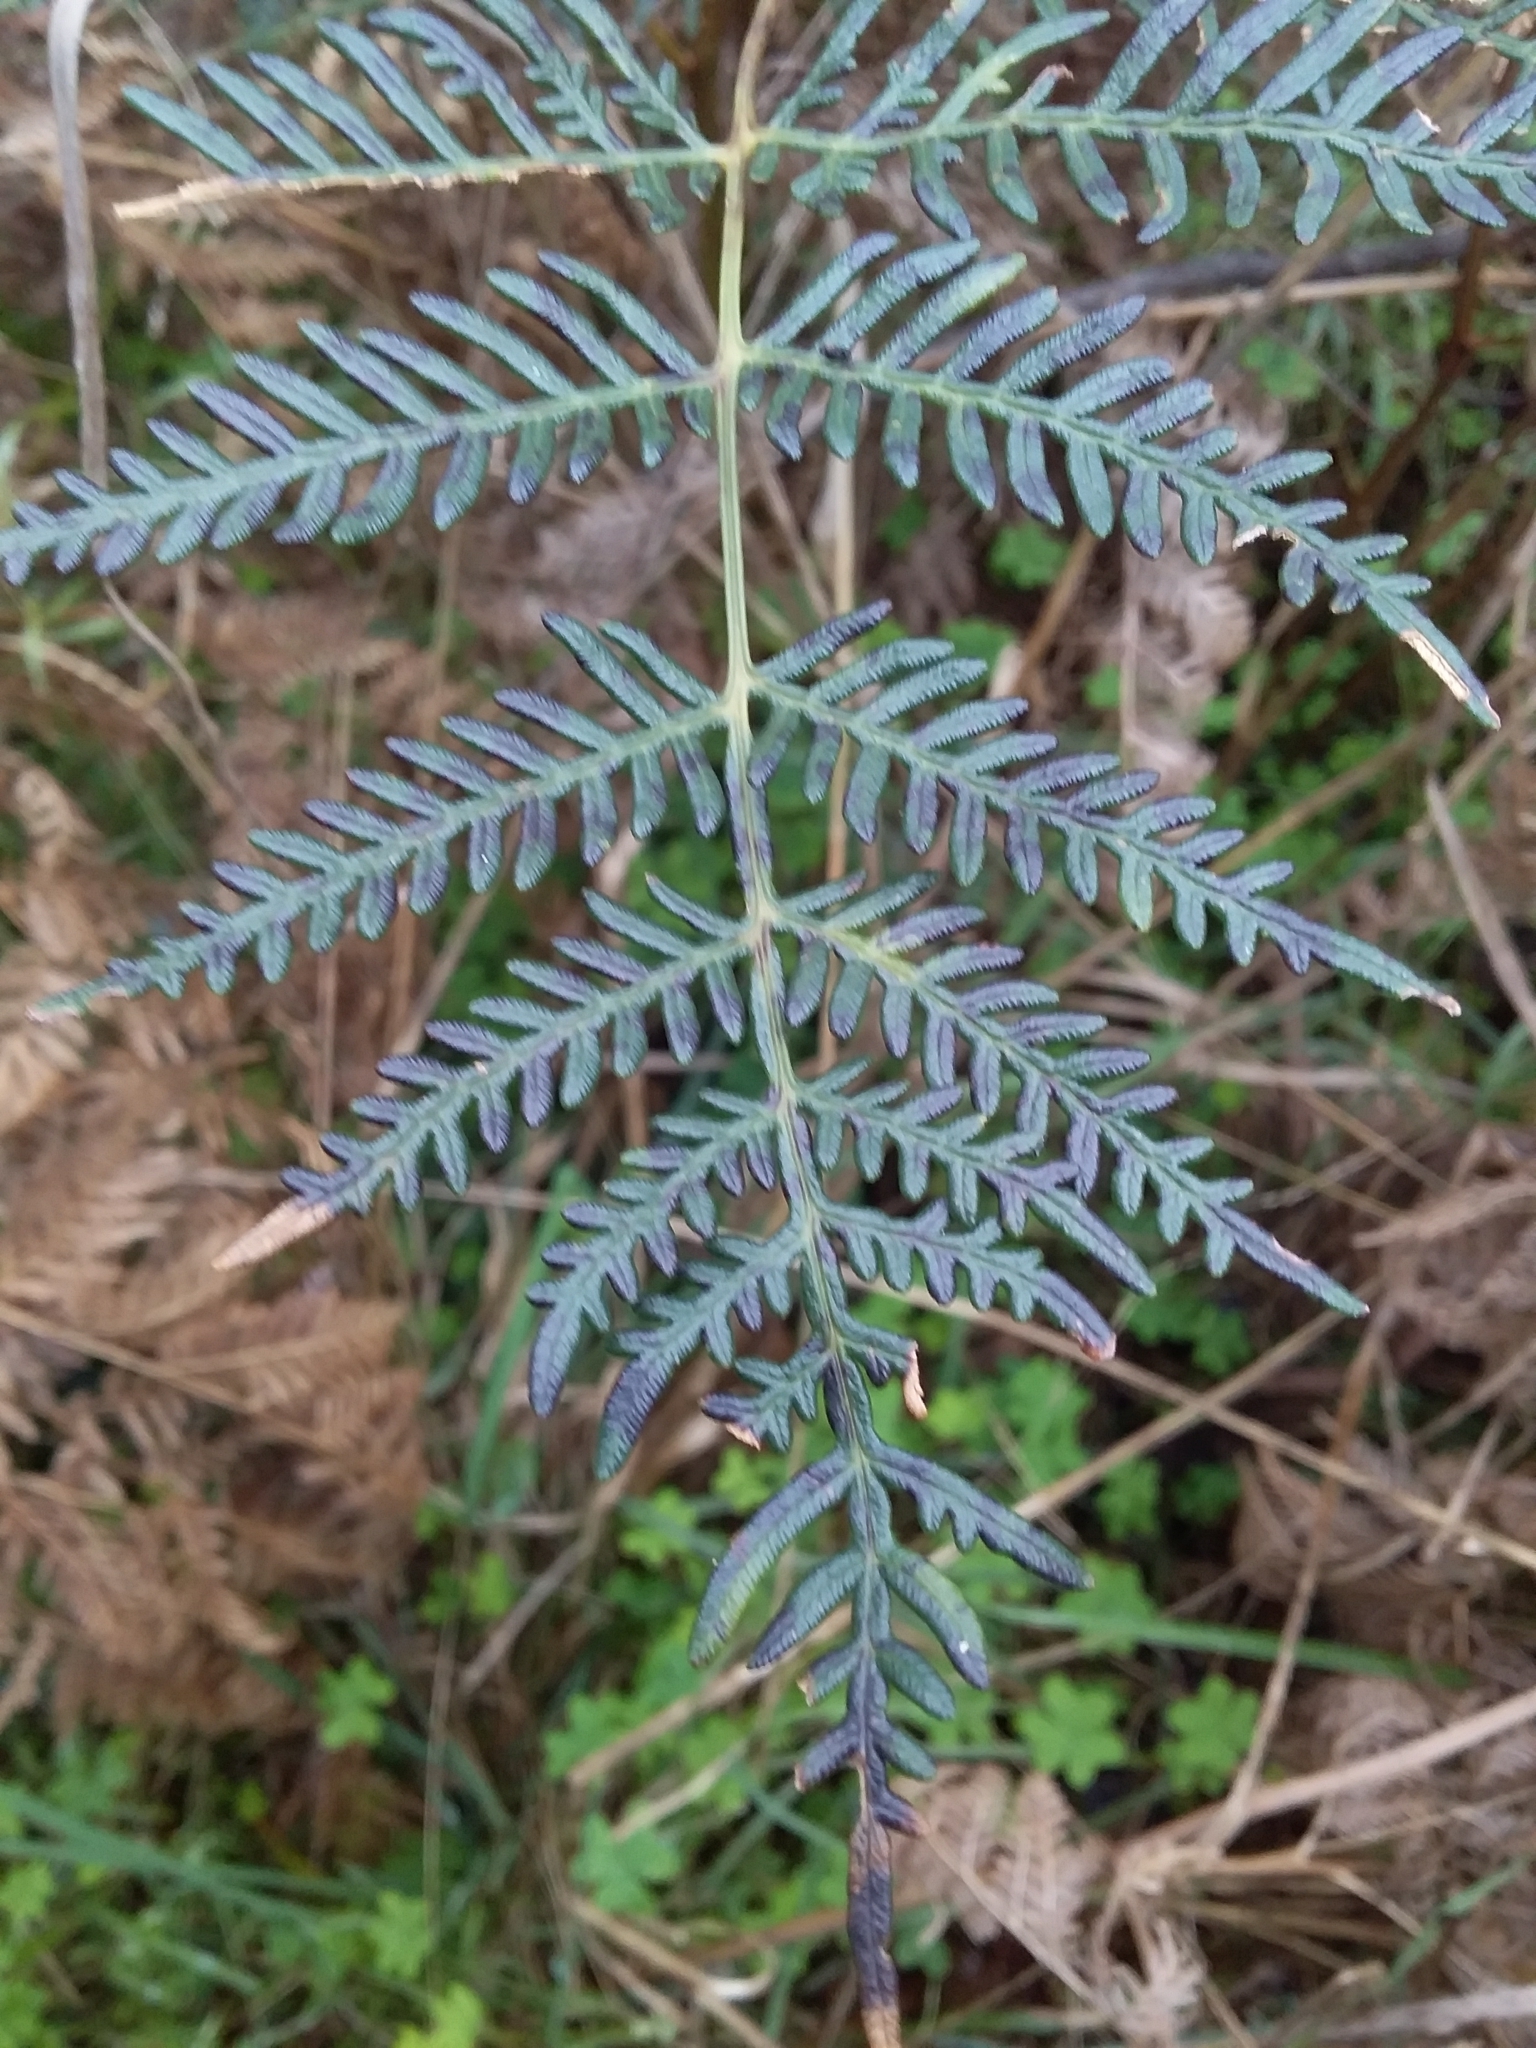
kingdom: Plantae
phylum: Tracheophyta
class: Polypodiopsida
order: Polypodiales
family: Dennstaedtiaceae
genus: Pteridium
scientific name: Pteridium esculentum
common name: Bracken fern
